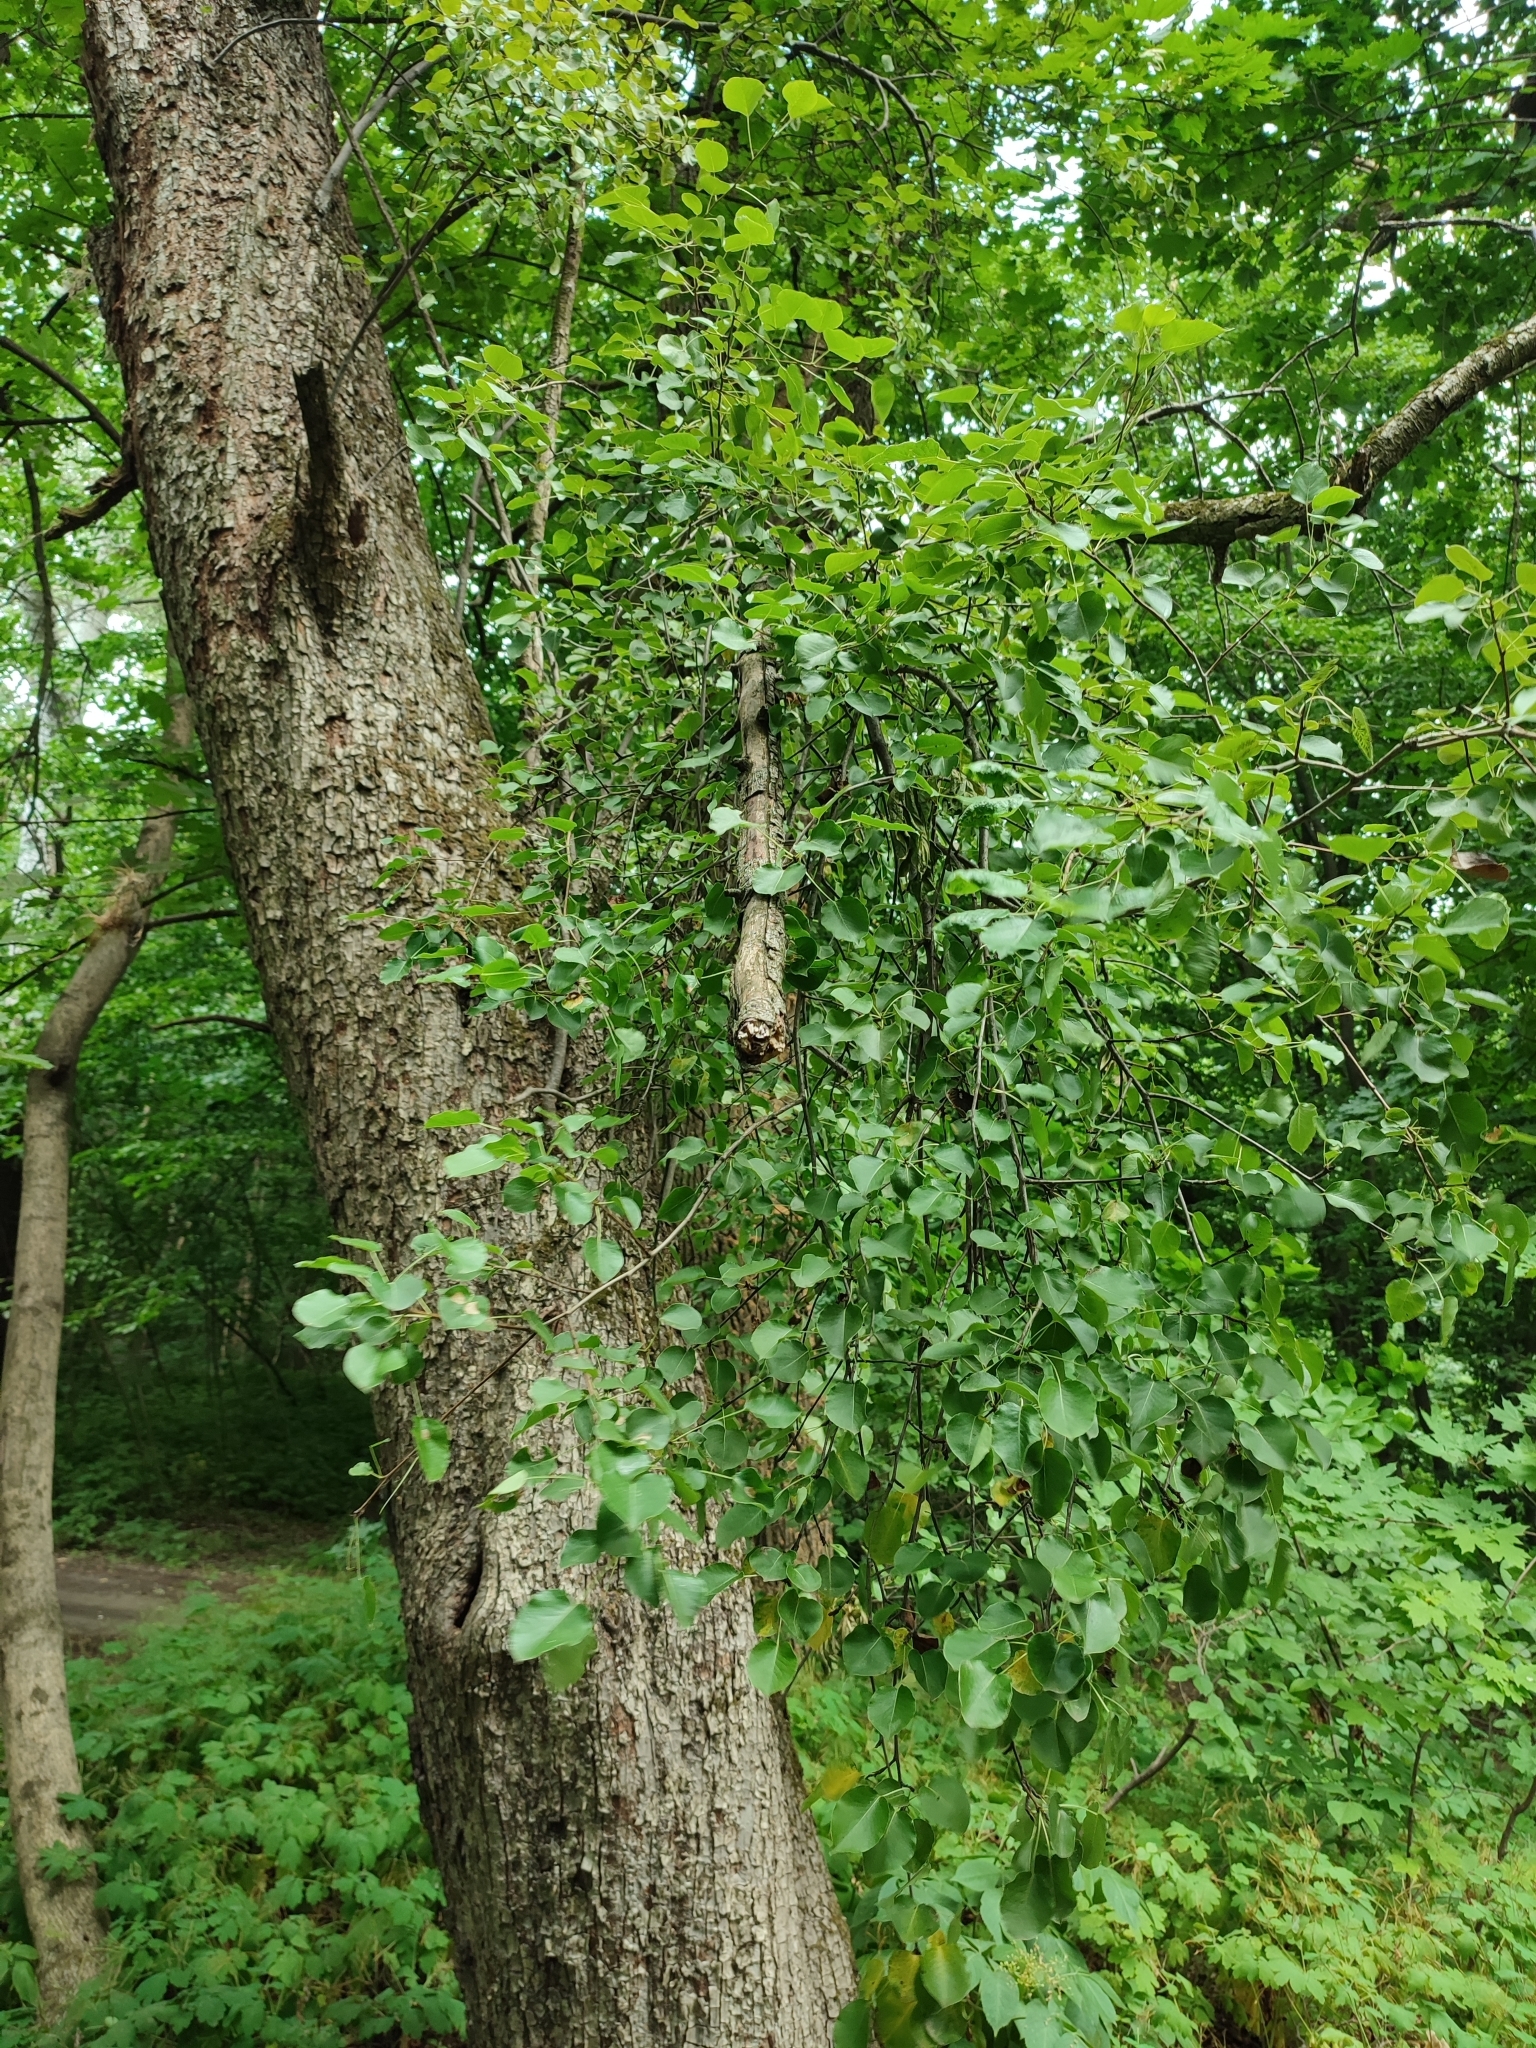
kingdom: Plantae
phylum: Tracheophyta
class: Magnoliopsida
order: Rosales
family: Rosaceae
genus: Pyrus
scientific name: Pyrus communis
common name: Pear
